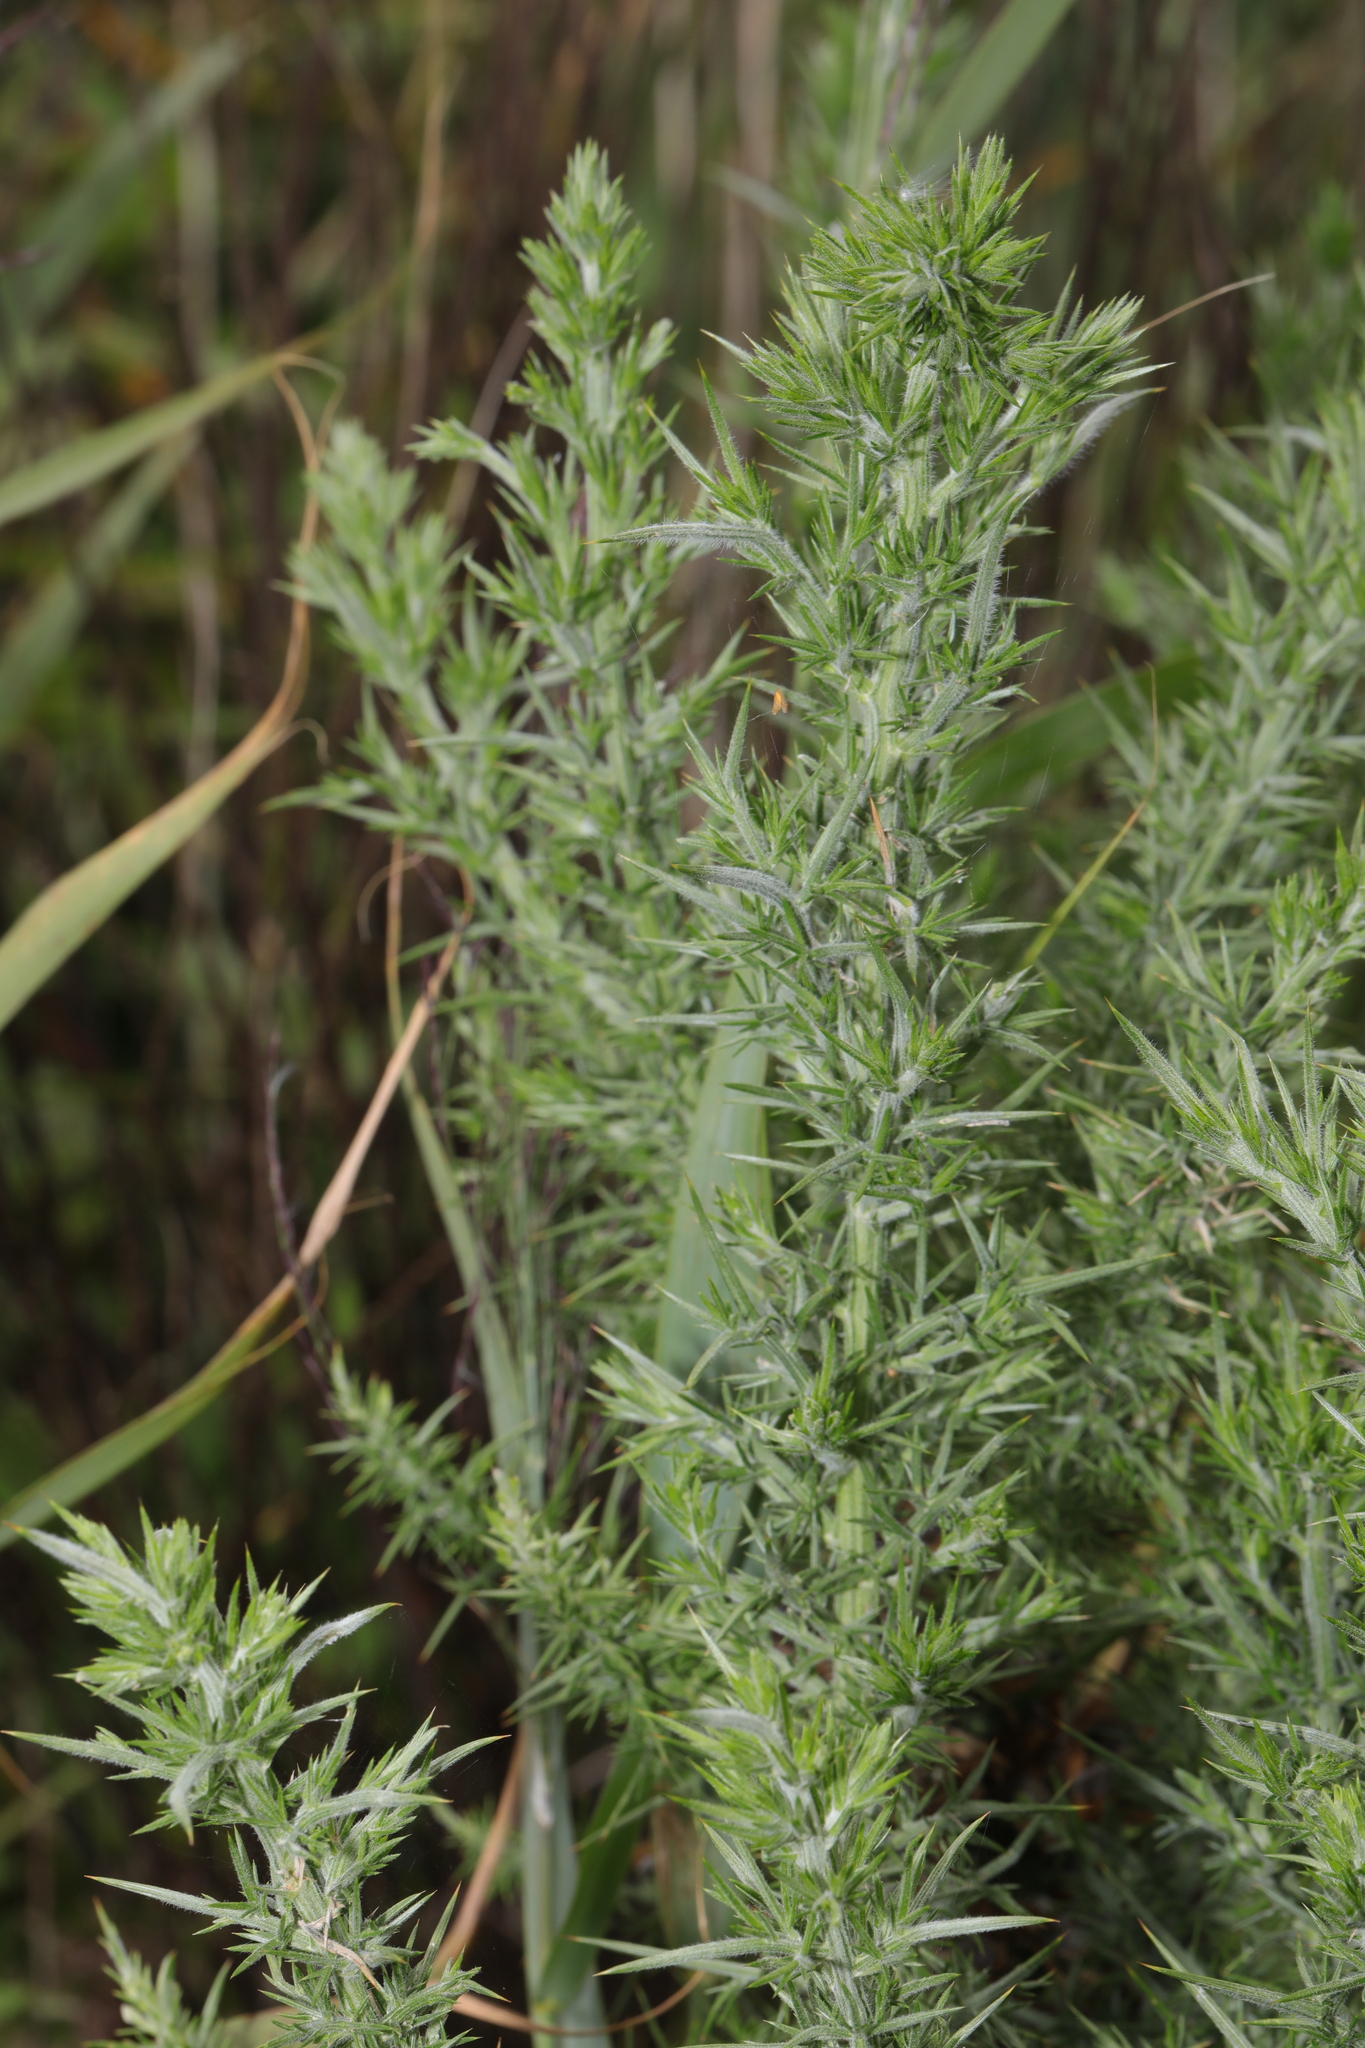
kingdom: Plantae
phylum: Tracheophyta
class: Magnoliopsida
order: Fabales
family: Fabaceae
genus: Ulex
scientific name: Ulex europaeus
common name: Common gorse
